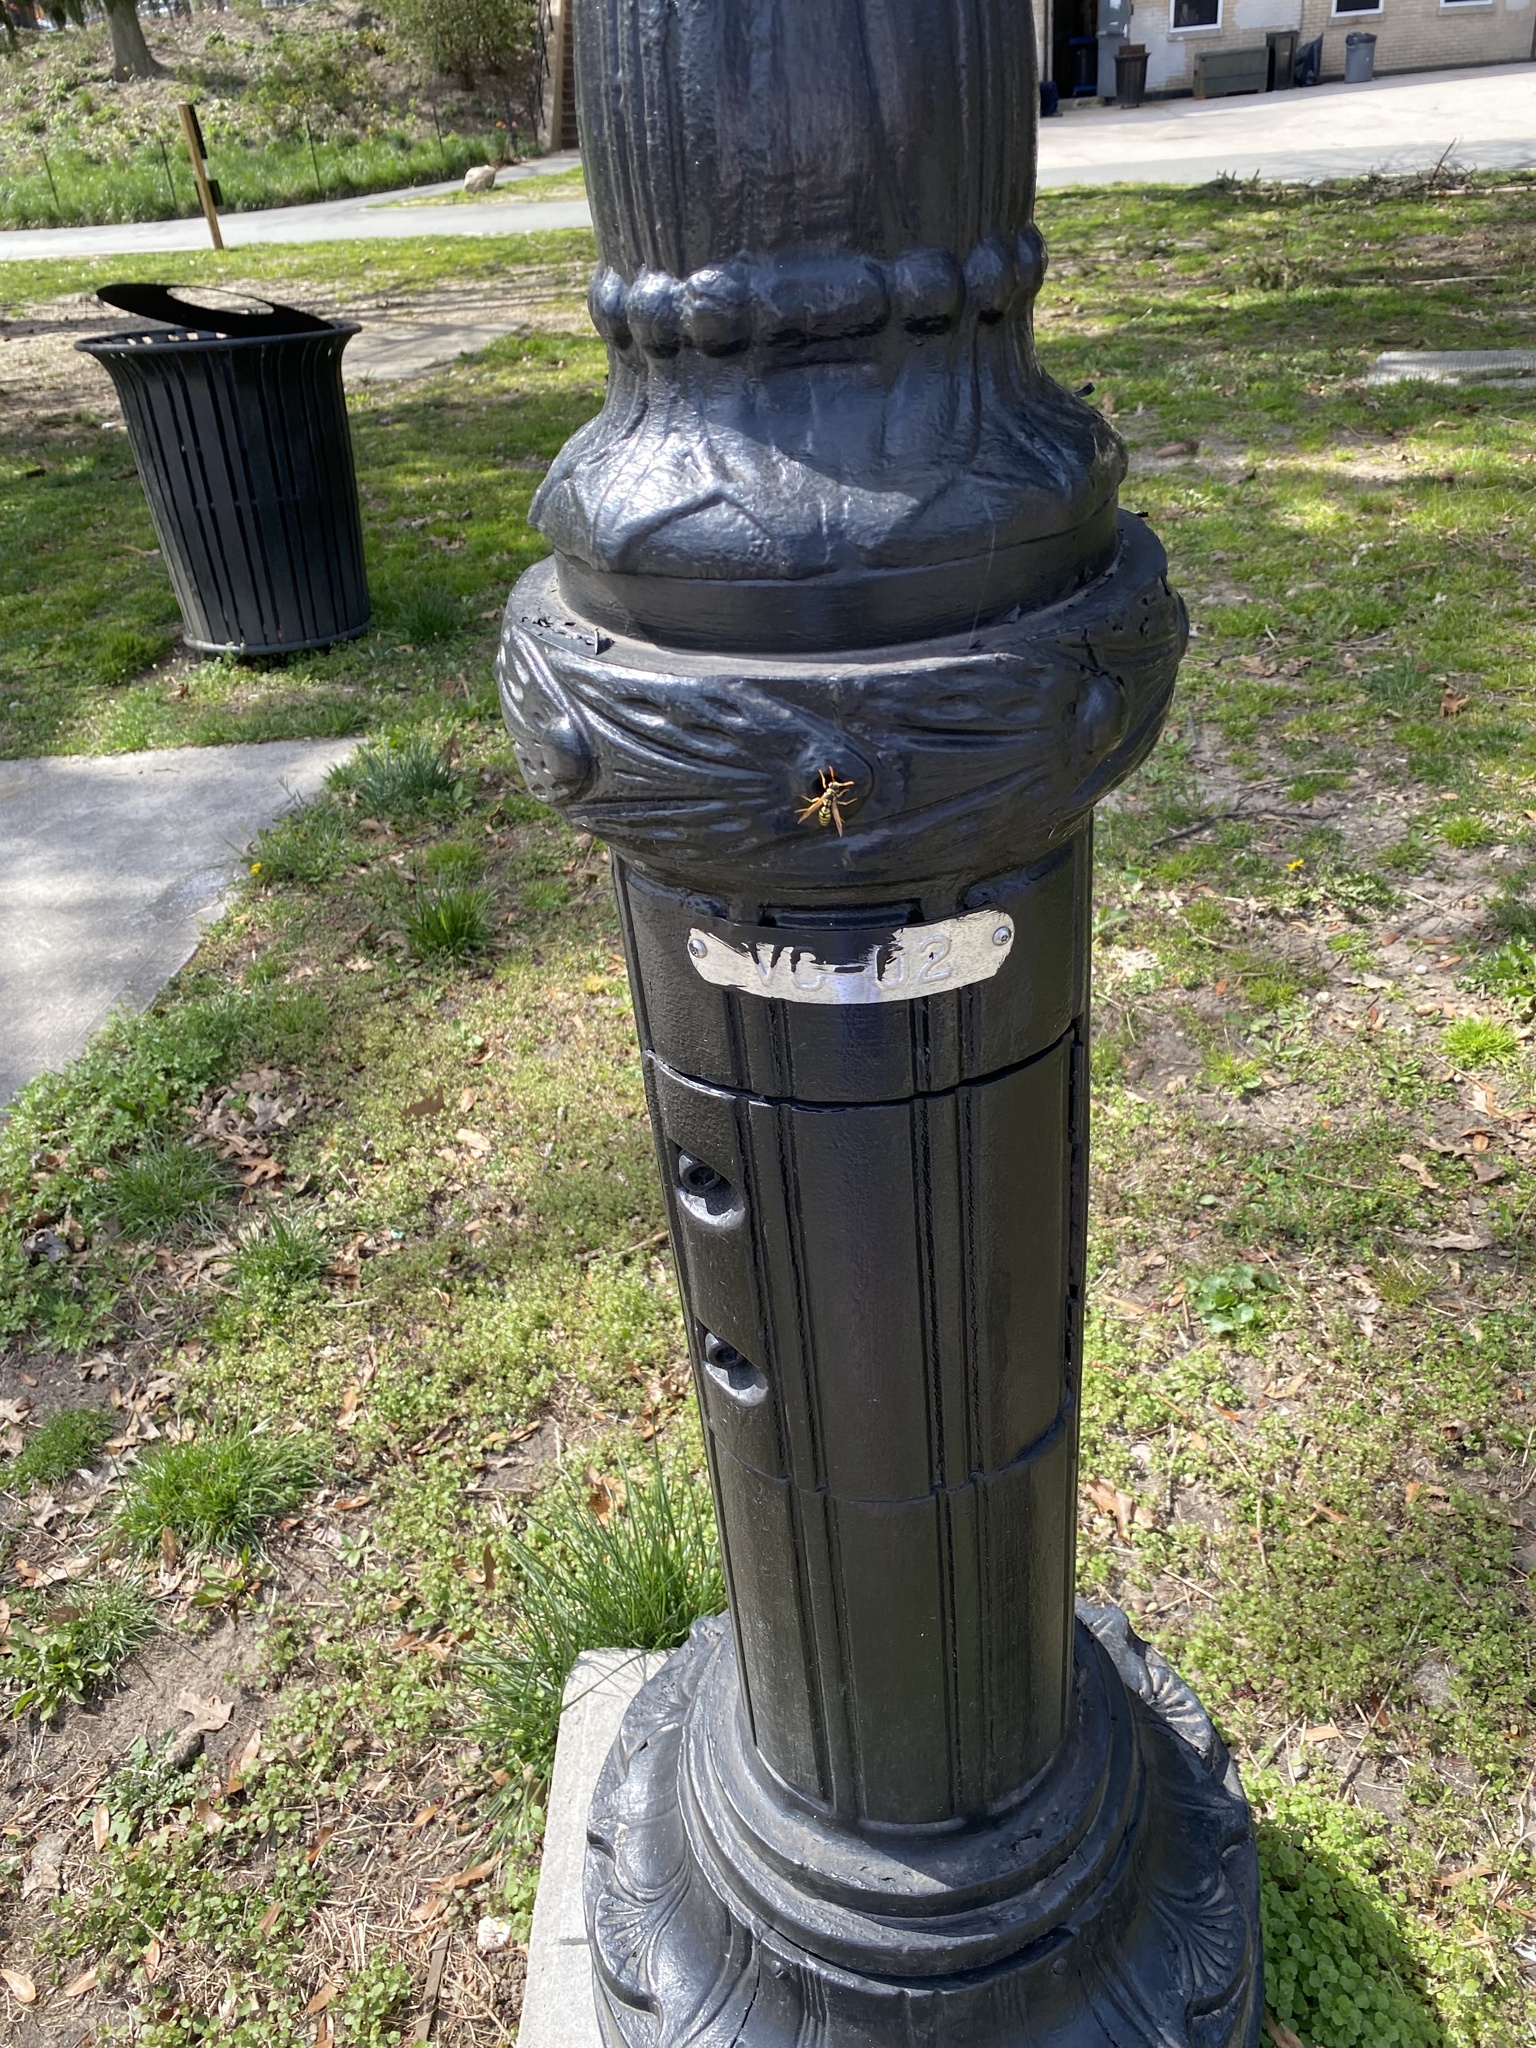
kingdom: Animalia
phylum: Arthropoda
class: Insecta
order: Hymenoptera
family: Eumenidae
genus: Polistes
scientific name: Polistes dominula
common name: Paper wasp
